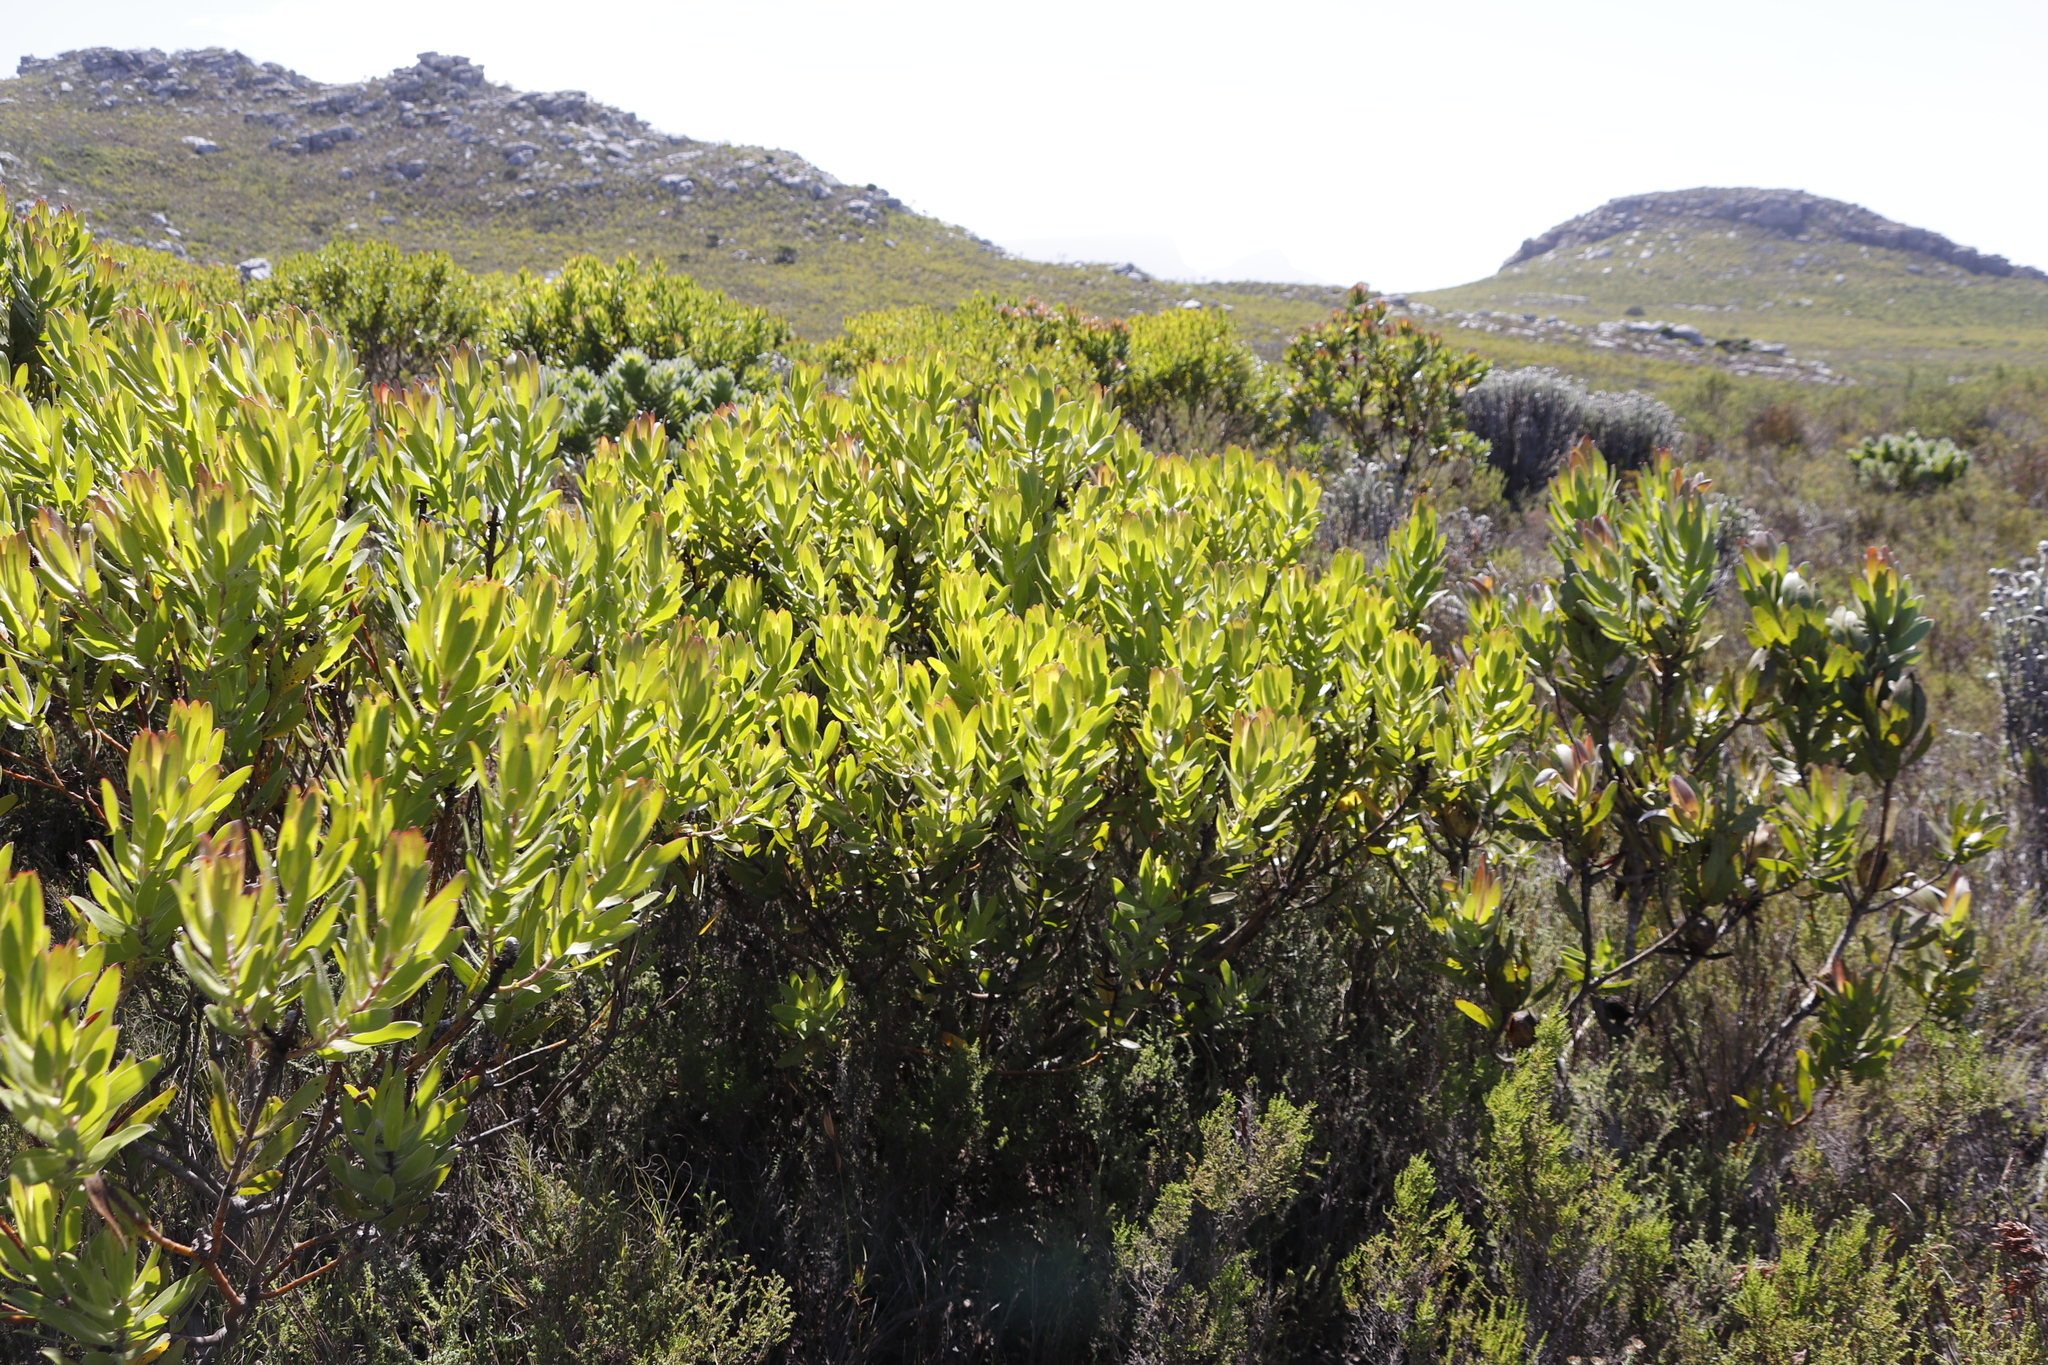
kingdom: Plantae
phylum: Tracheophyta
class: Magnoliopsida
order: Proteales
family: Proteaceae
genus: Leucadendron
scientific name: Leucadendron laureolum
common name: Golden sunshinebush
